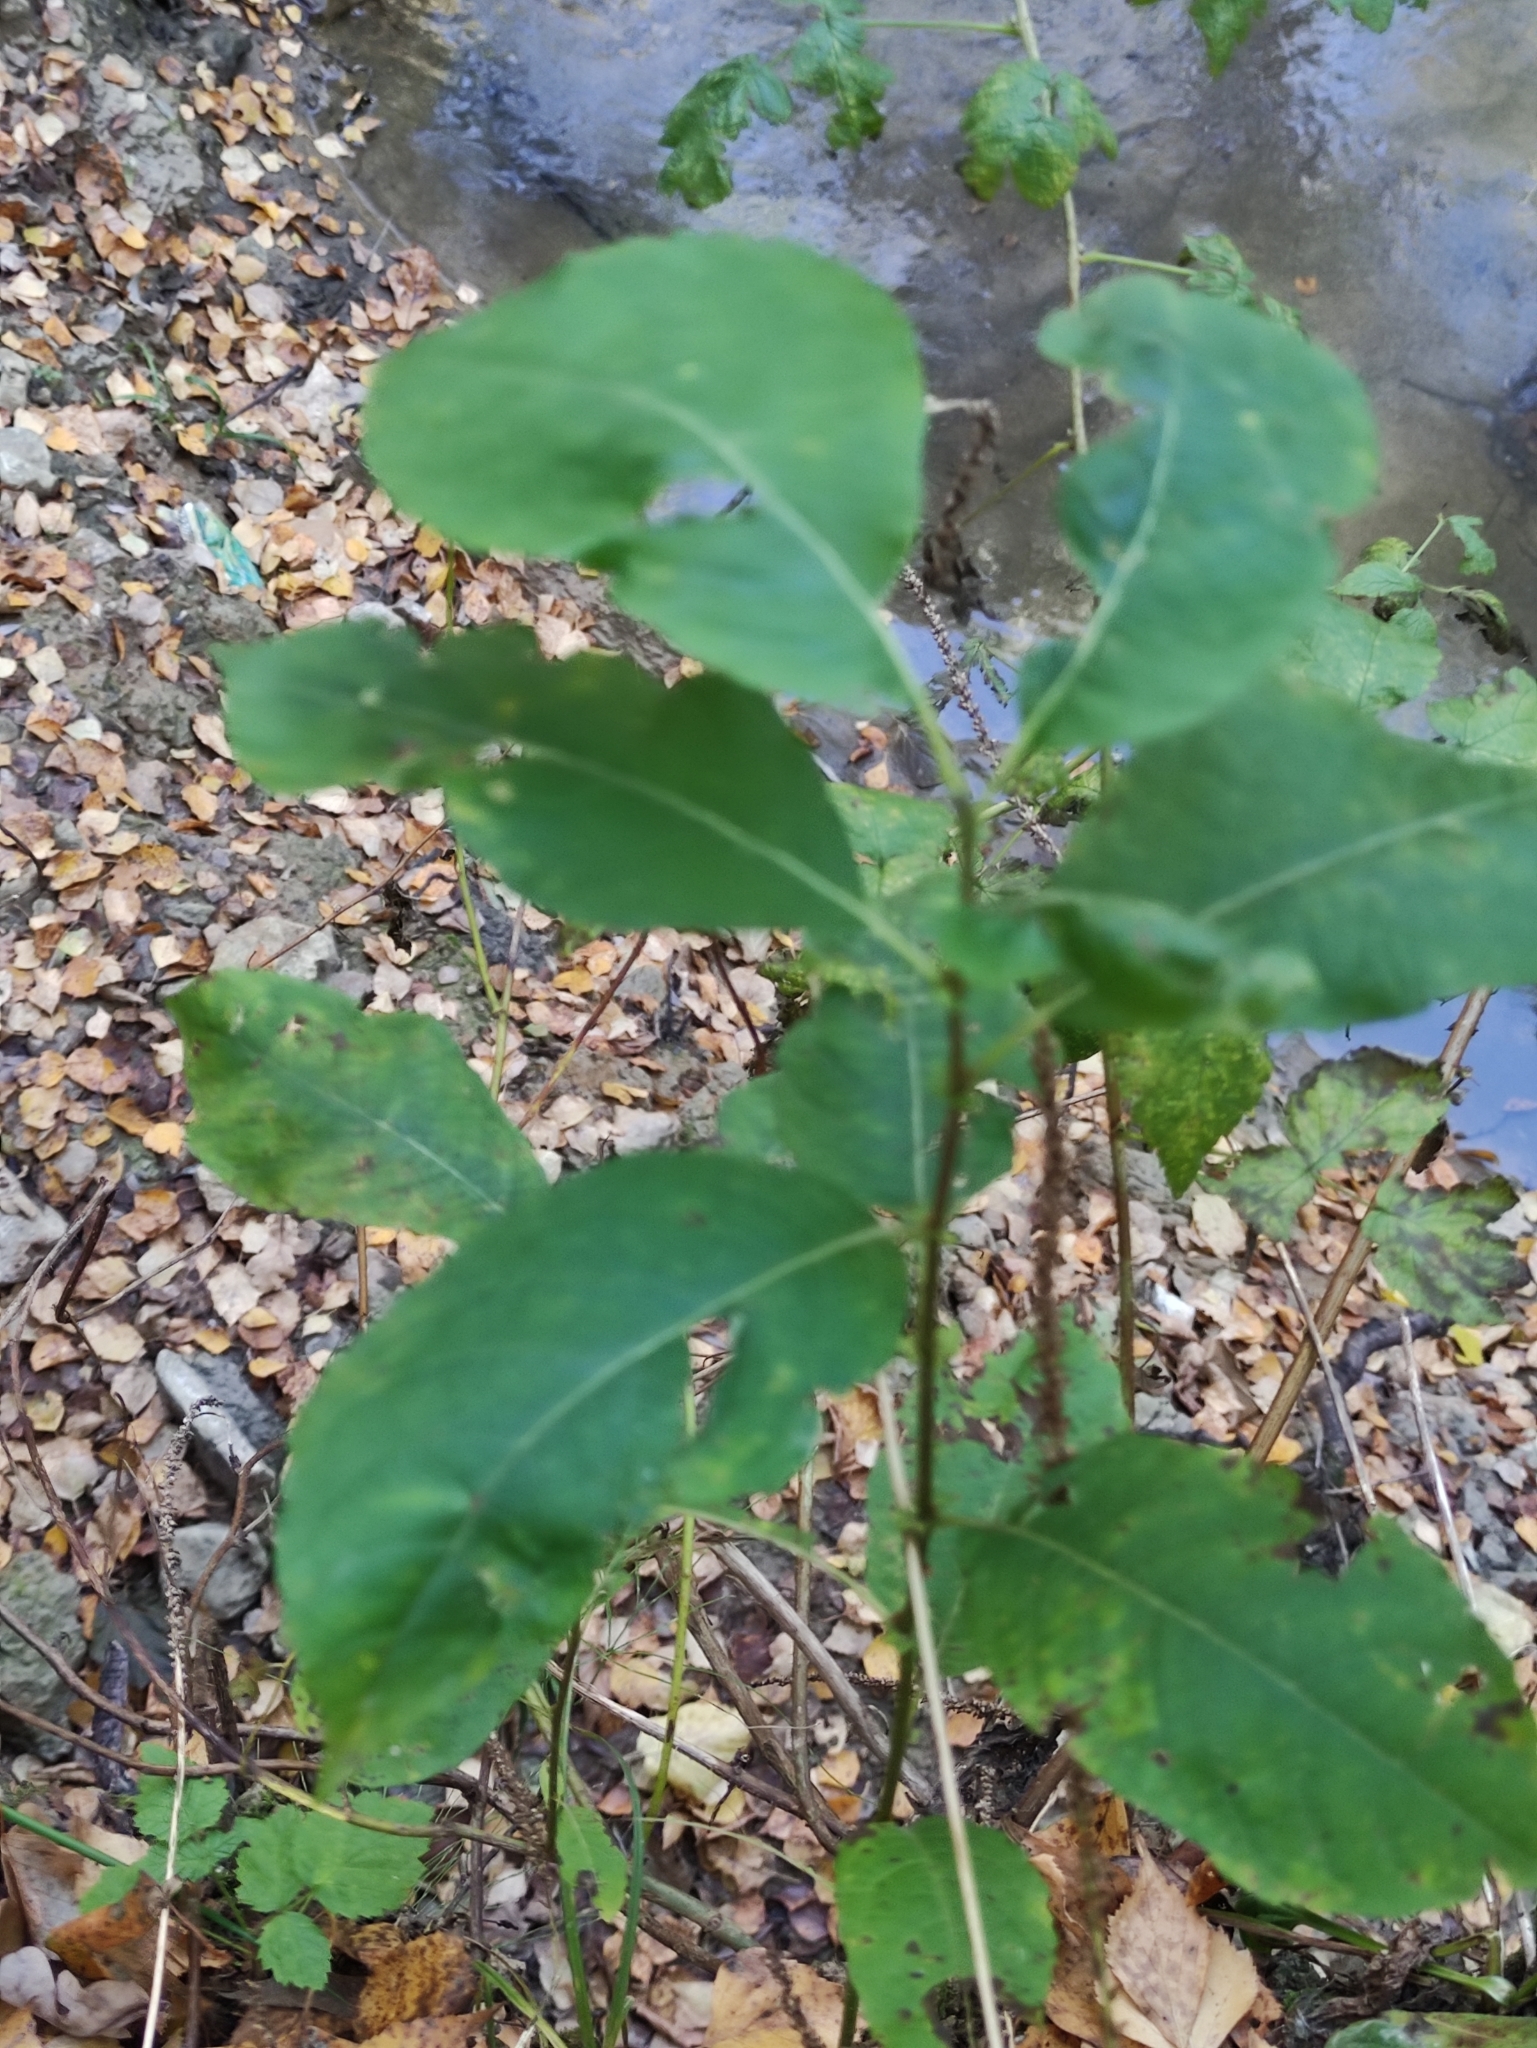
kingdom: Plantae
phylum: Tracheophyta
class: Magnoliopsida
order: Malpighiales
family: Salicaceae
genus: Salix
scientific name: Salix caprea
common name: Goat willow
